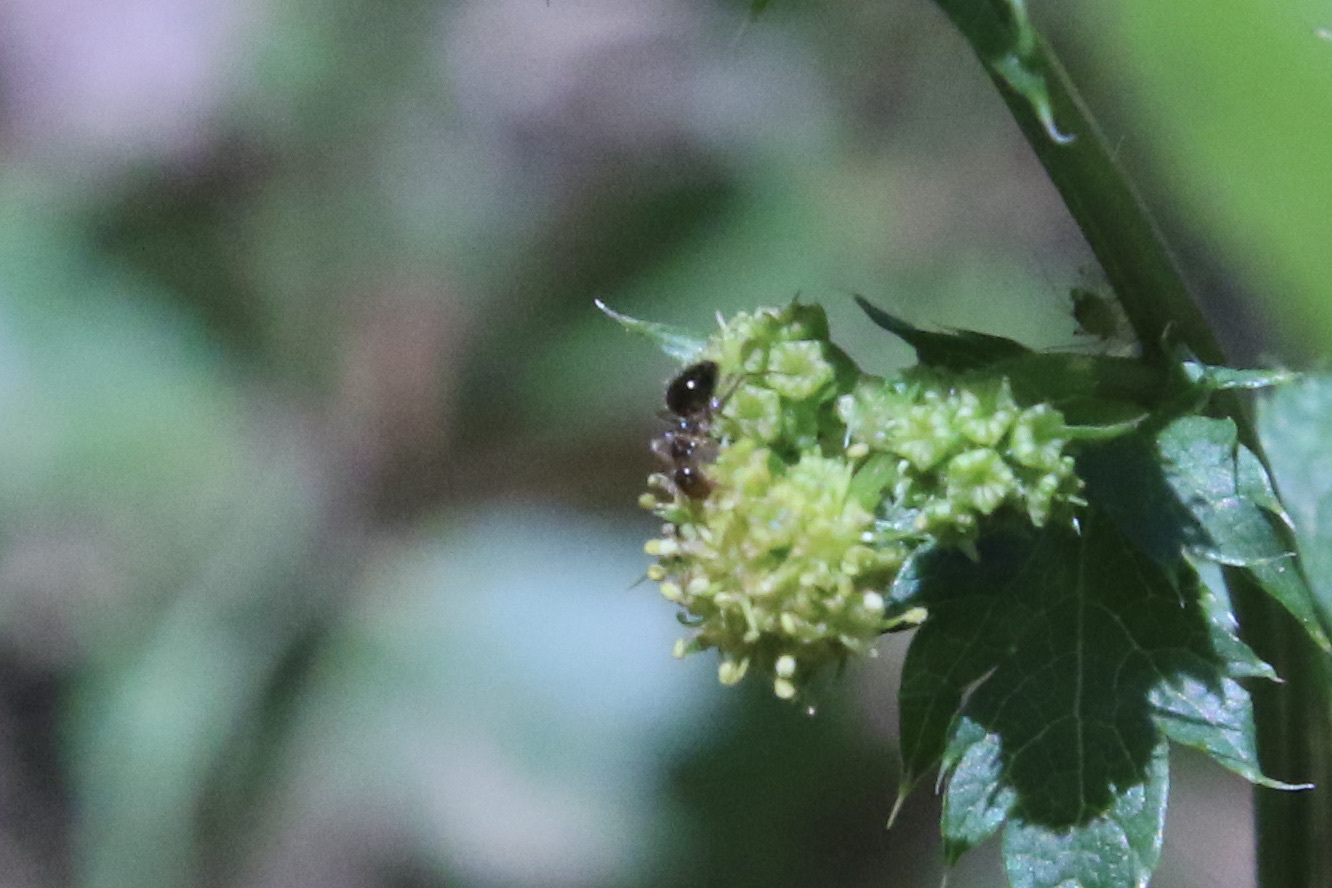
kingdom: Animalia
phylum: Arthropoda
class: Insecta
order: Hymenoptera
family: Formicidae
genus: Prenolepis
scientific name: Prenolepis imparis
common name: Small honey ant
